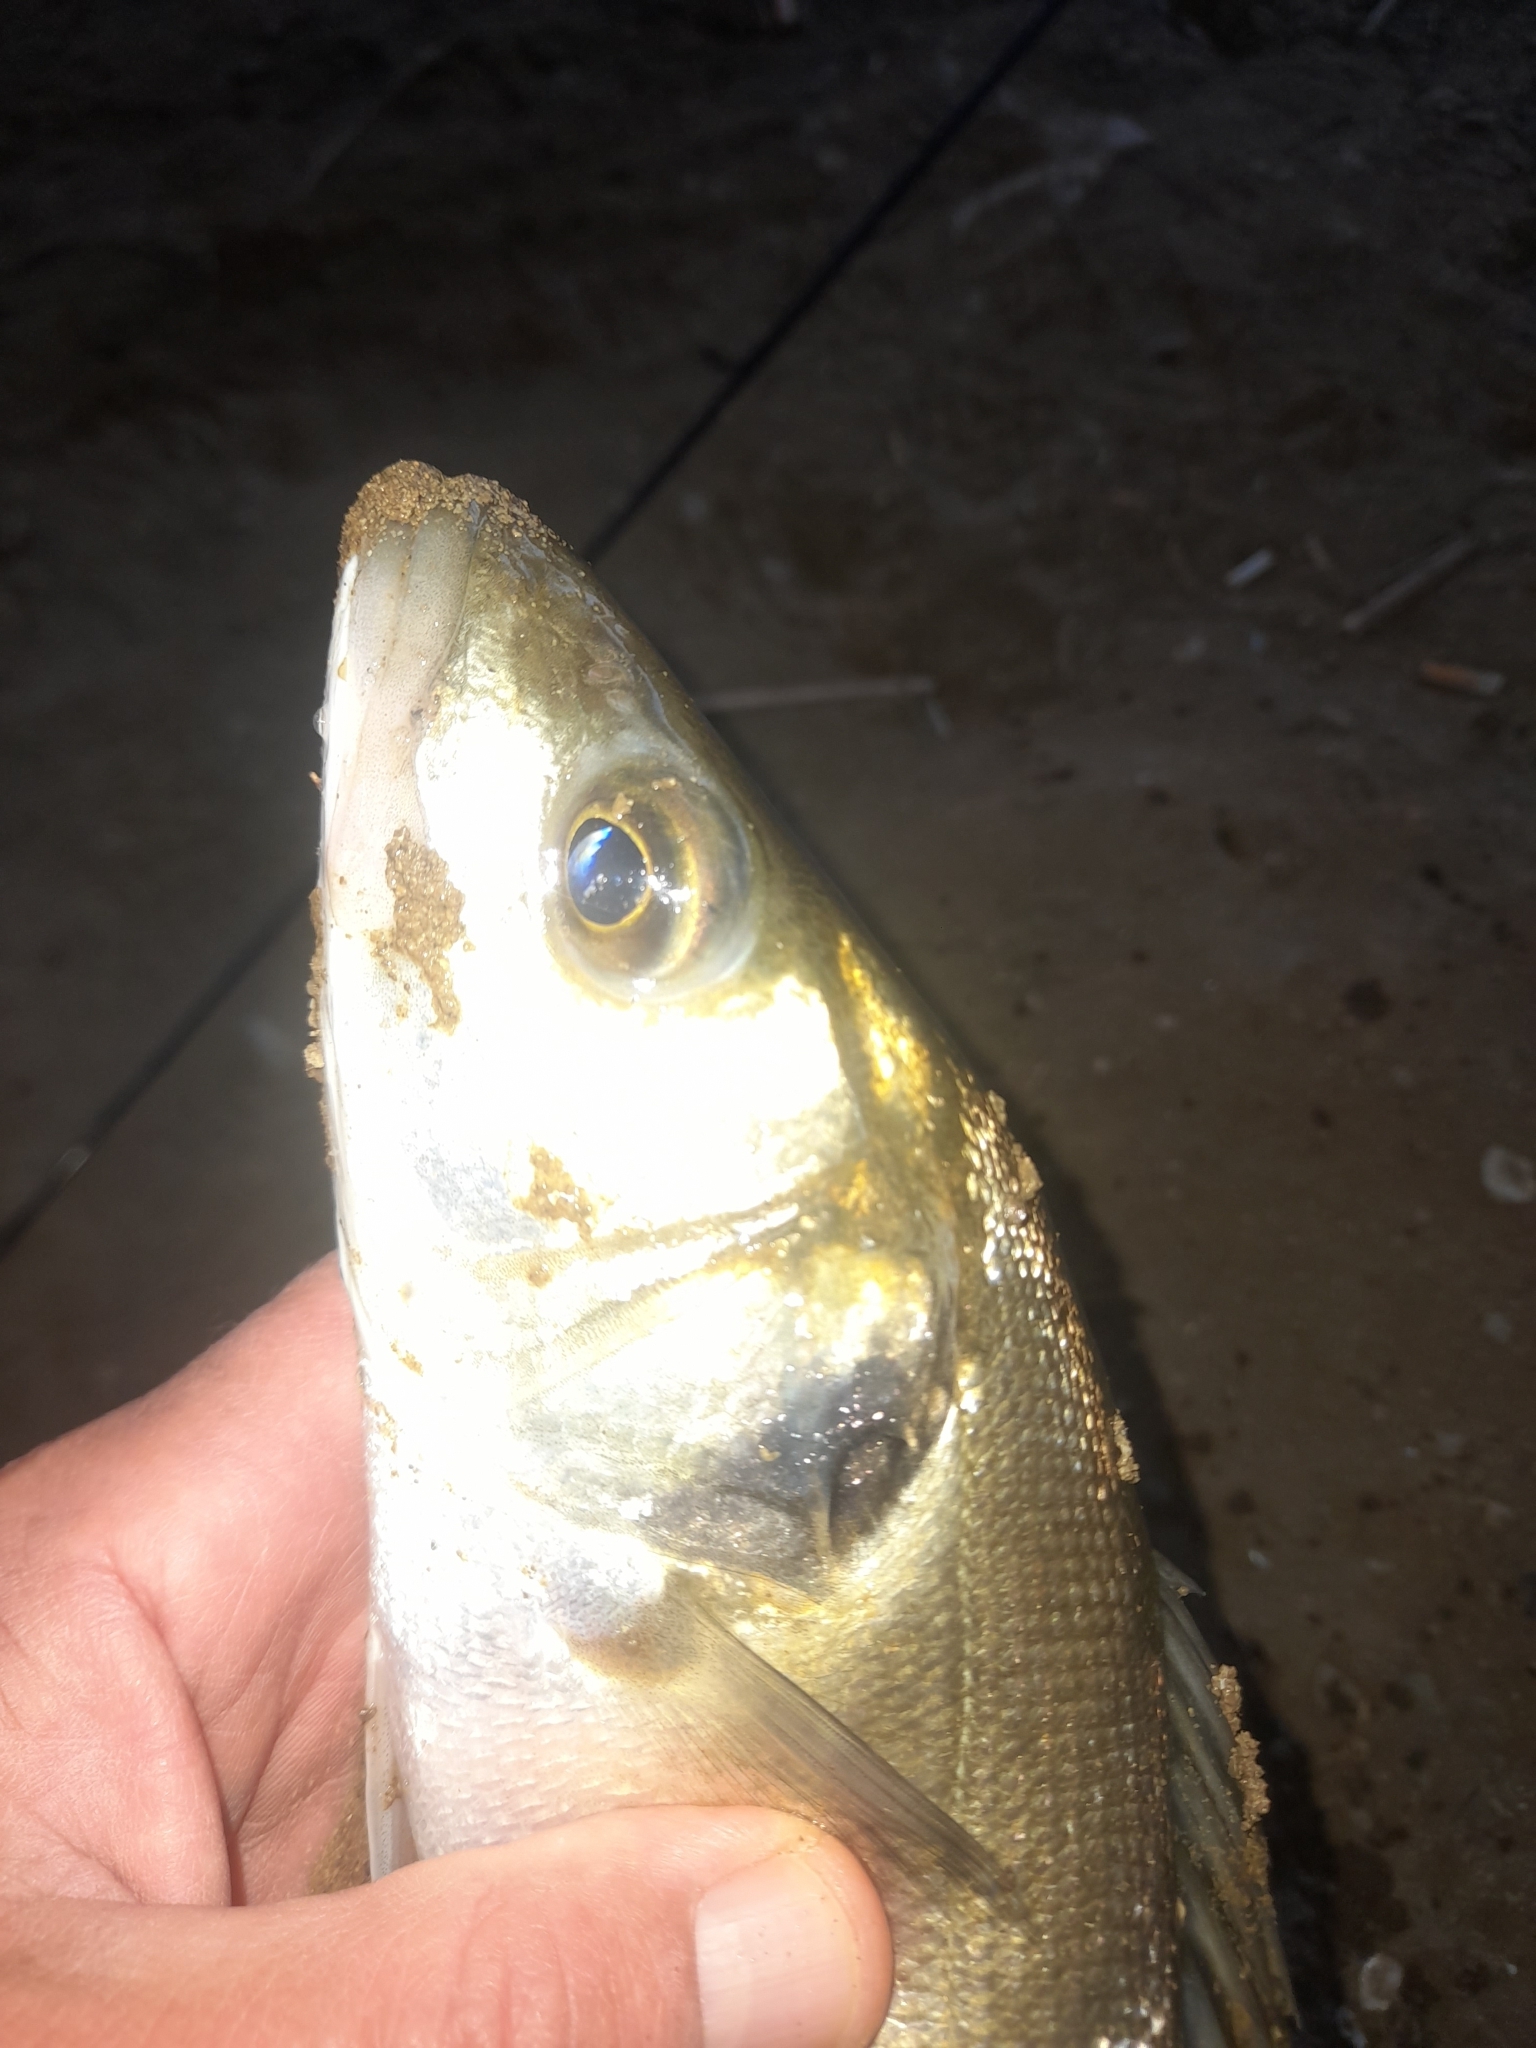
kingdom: Animalia
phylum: Chordata
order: Perciformes
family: Moronidae
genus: Dicentrarchus
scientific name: Dicentrarchus labrax
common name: European seabass
